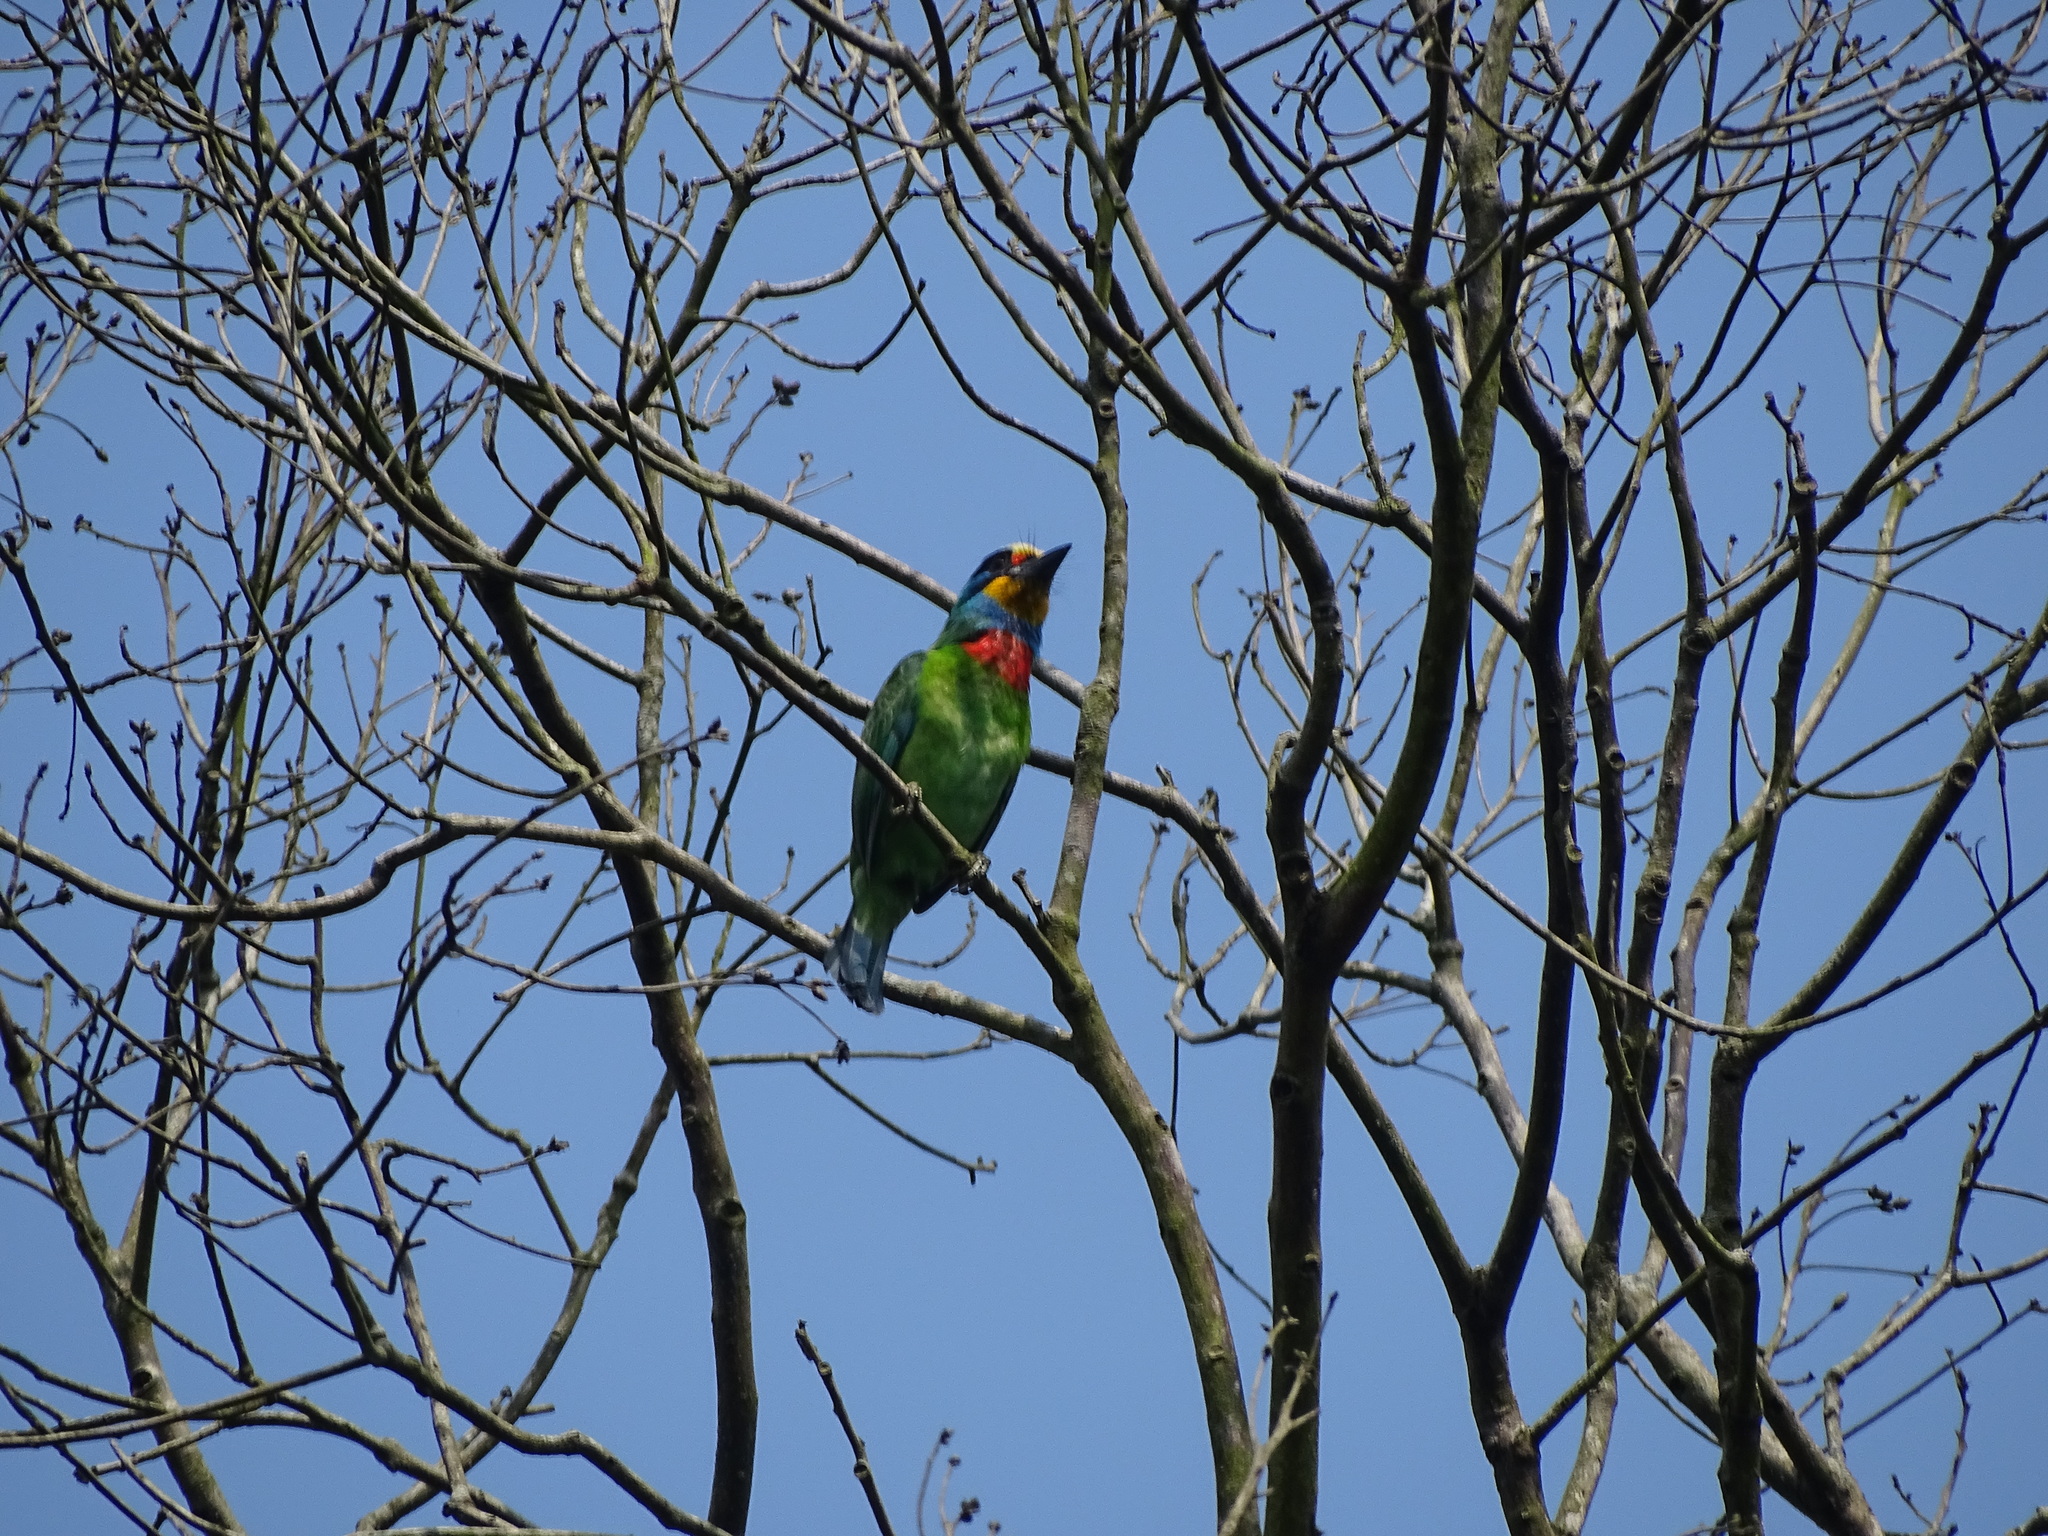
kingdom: Animalia
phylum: Chordata
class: Aves
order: Piciformes
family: Megalaimidae
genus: Psilopogon
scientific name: Psilopogon nuchalis
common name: Taiwan barbet
